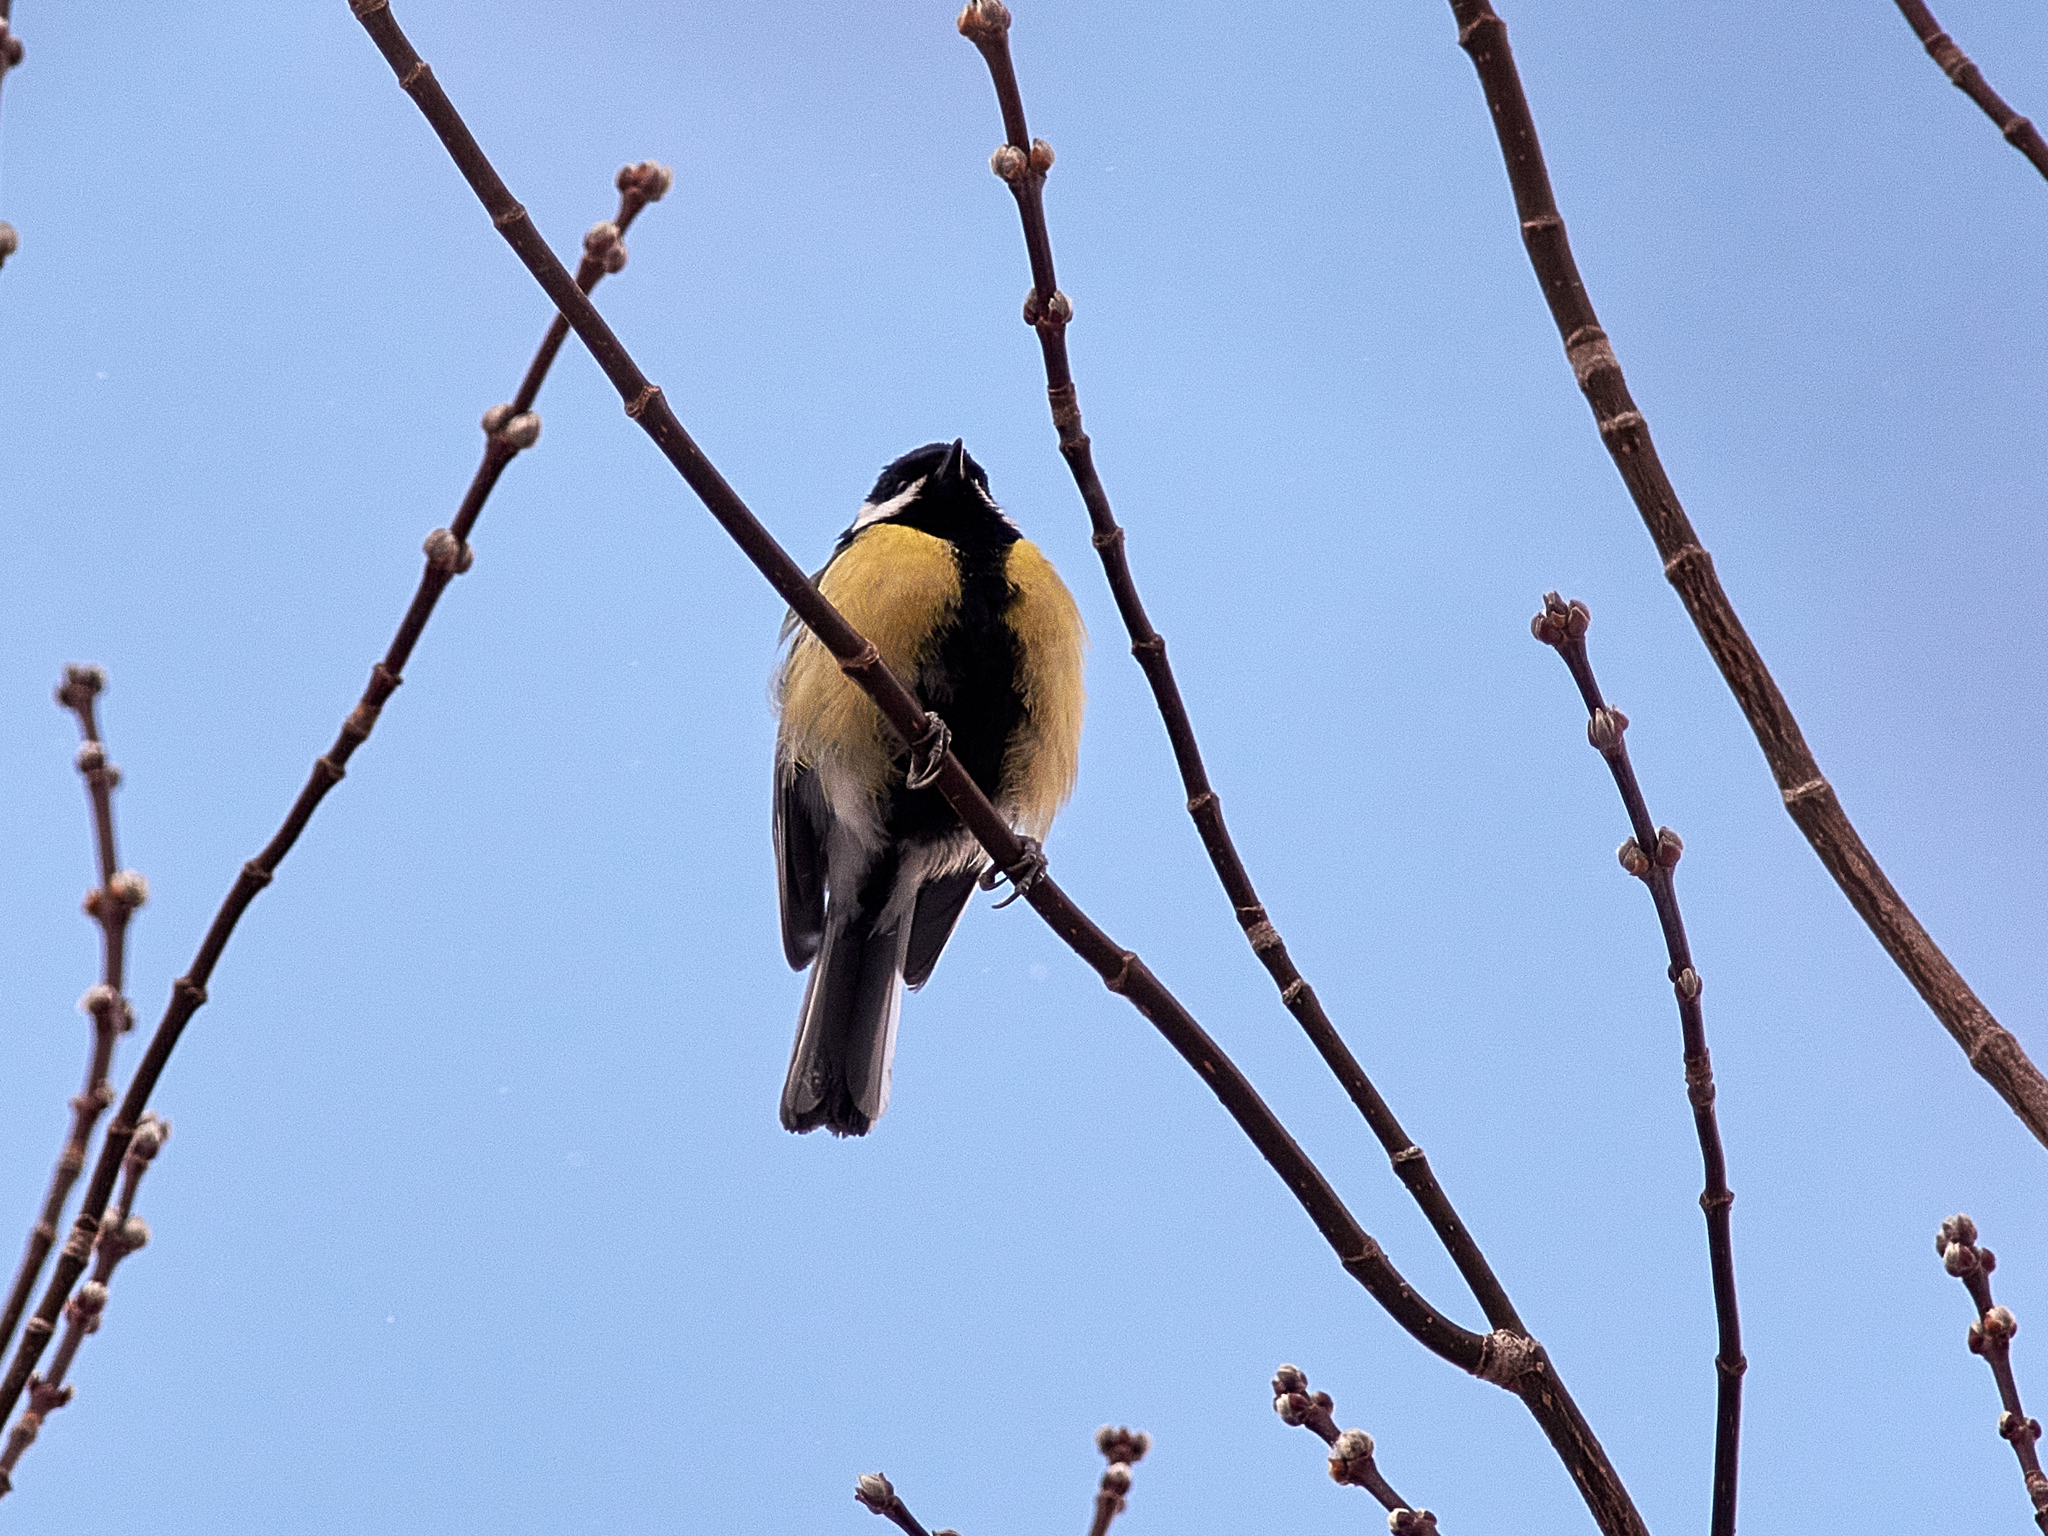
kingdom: Animalia
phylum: Chordata
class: Aves
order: Passeriformes
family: Paridae
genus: Parus
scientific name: Parus major
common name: Great tit
